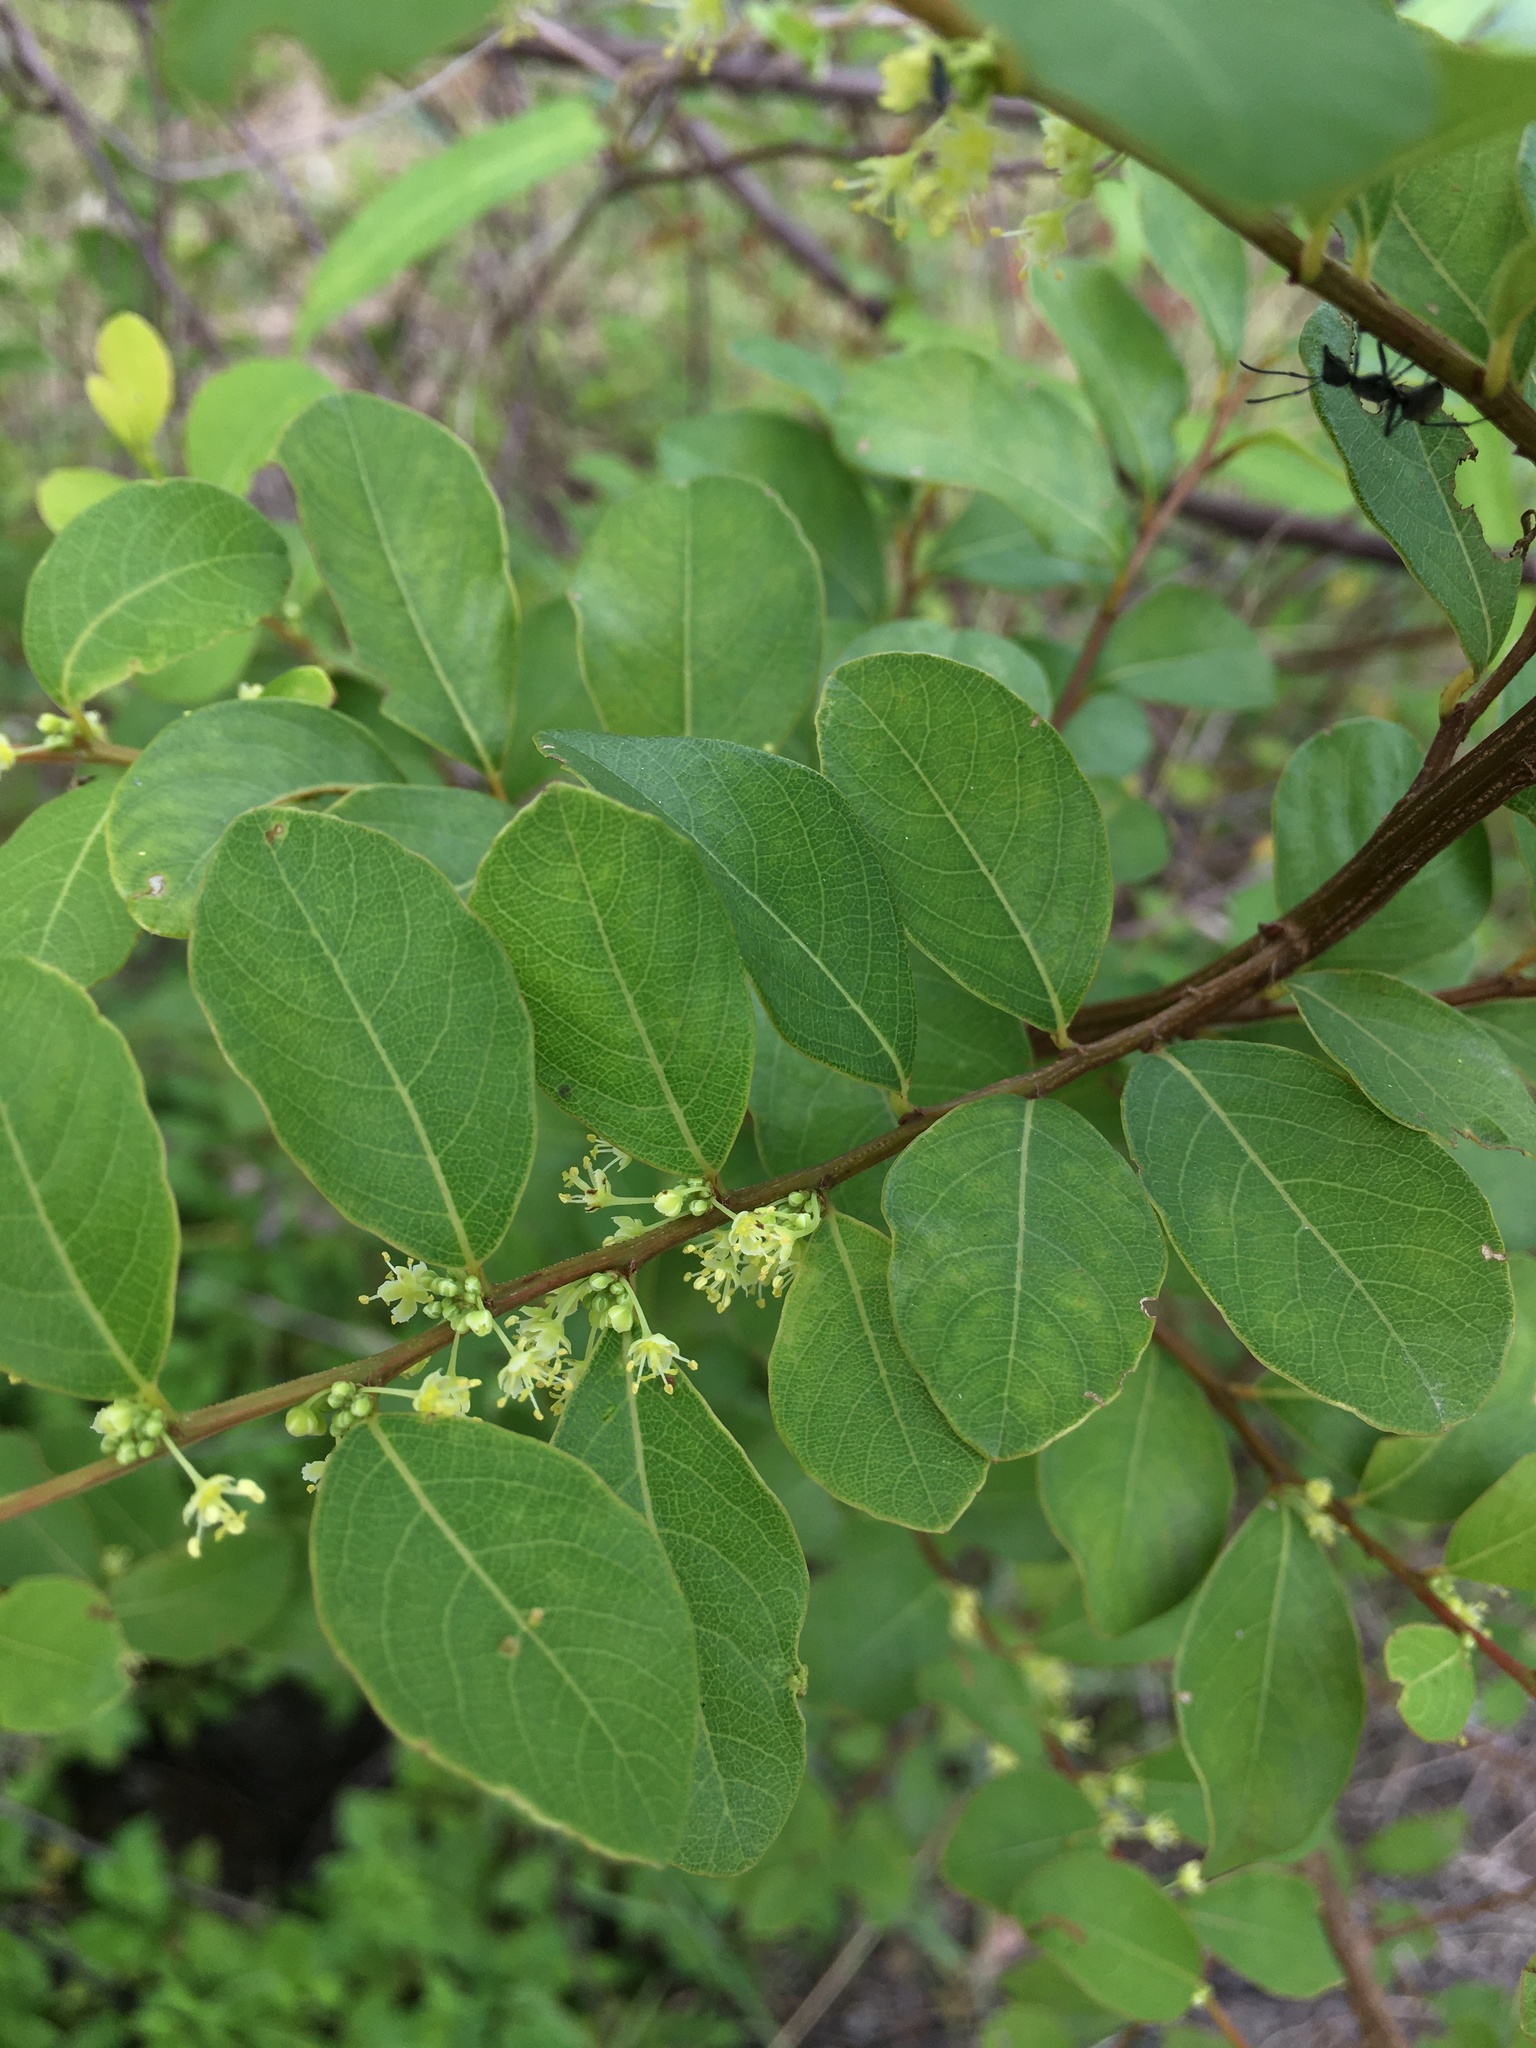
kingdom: Plantae
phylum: Tracheophyta
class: Magnoliopsida
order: Malpighiales
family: Phyllanthaceae
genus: Flueggea
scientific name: Flueggea virosa
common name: Common bushweed
